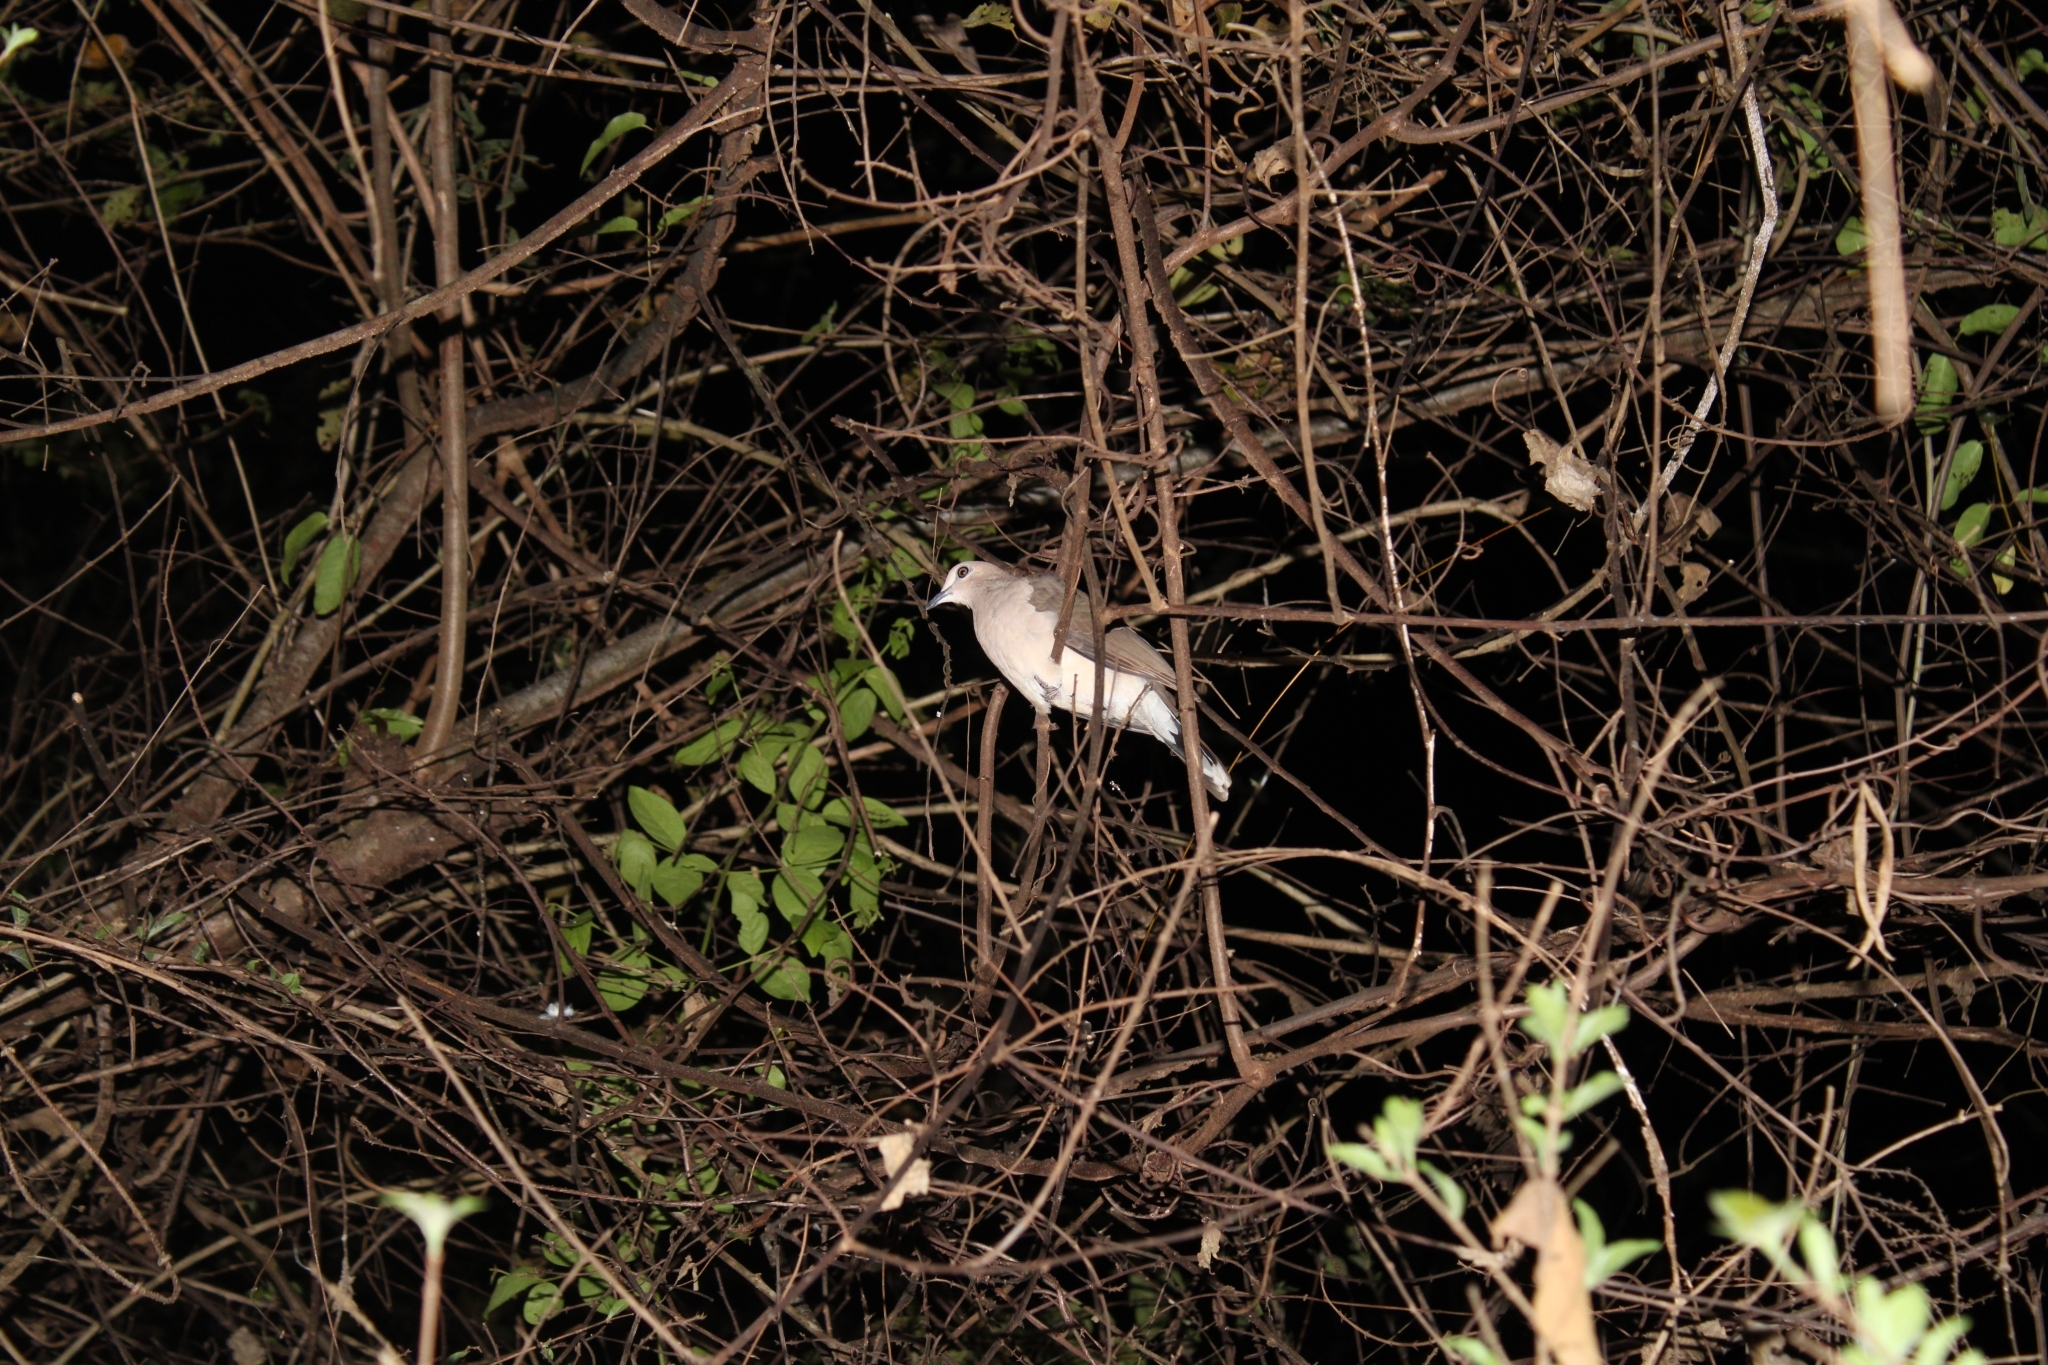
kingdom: Animalia
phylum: Chordata
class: Aves
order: Columbiformes
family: Columbidae
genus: Leptotila
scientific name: Leptotila verreauxi
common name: White-tipped dove
